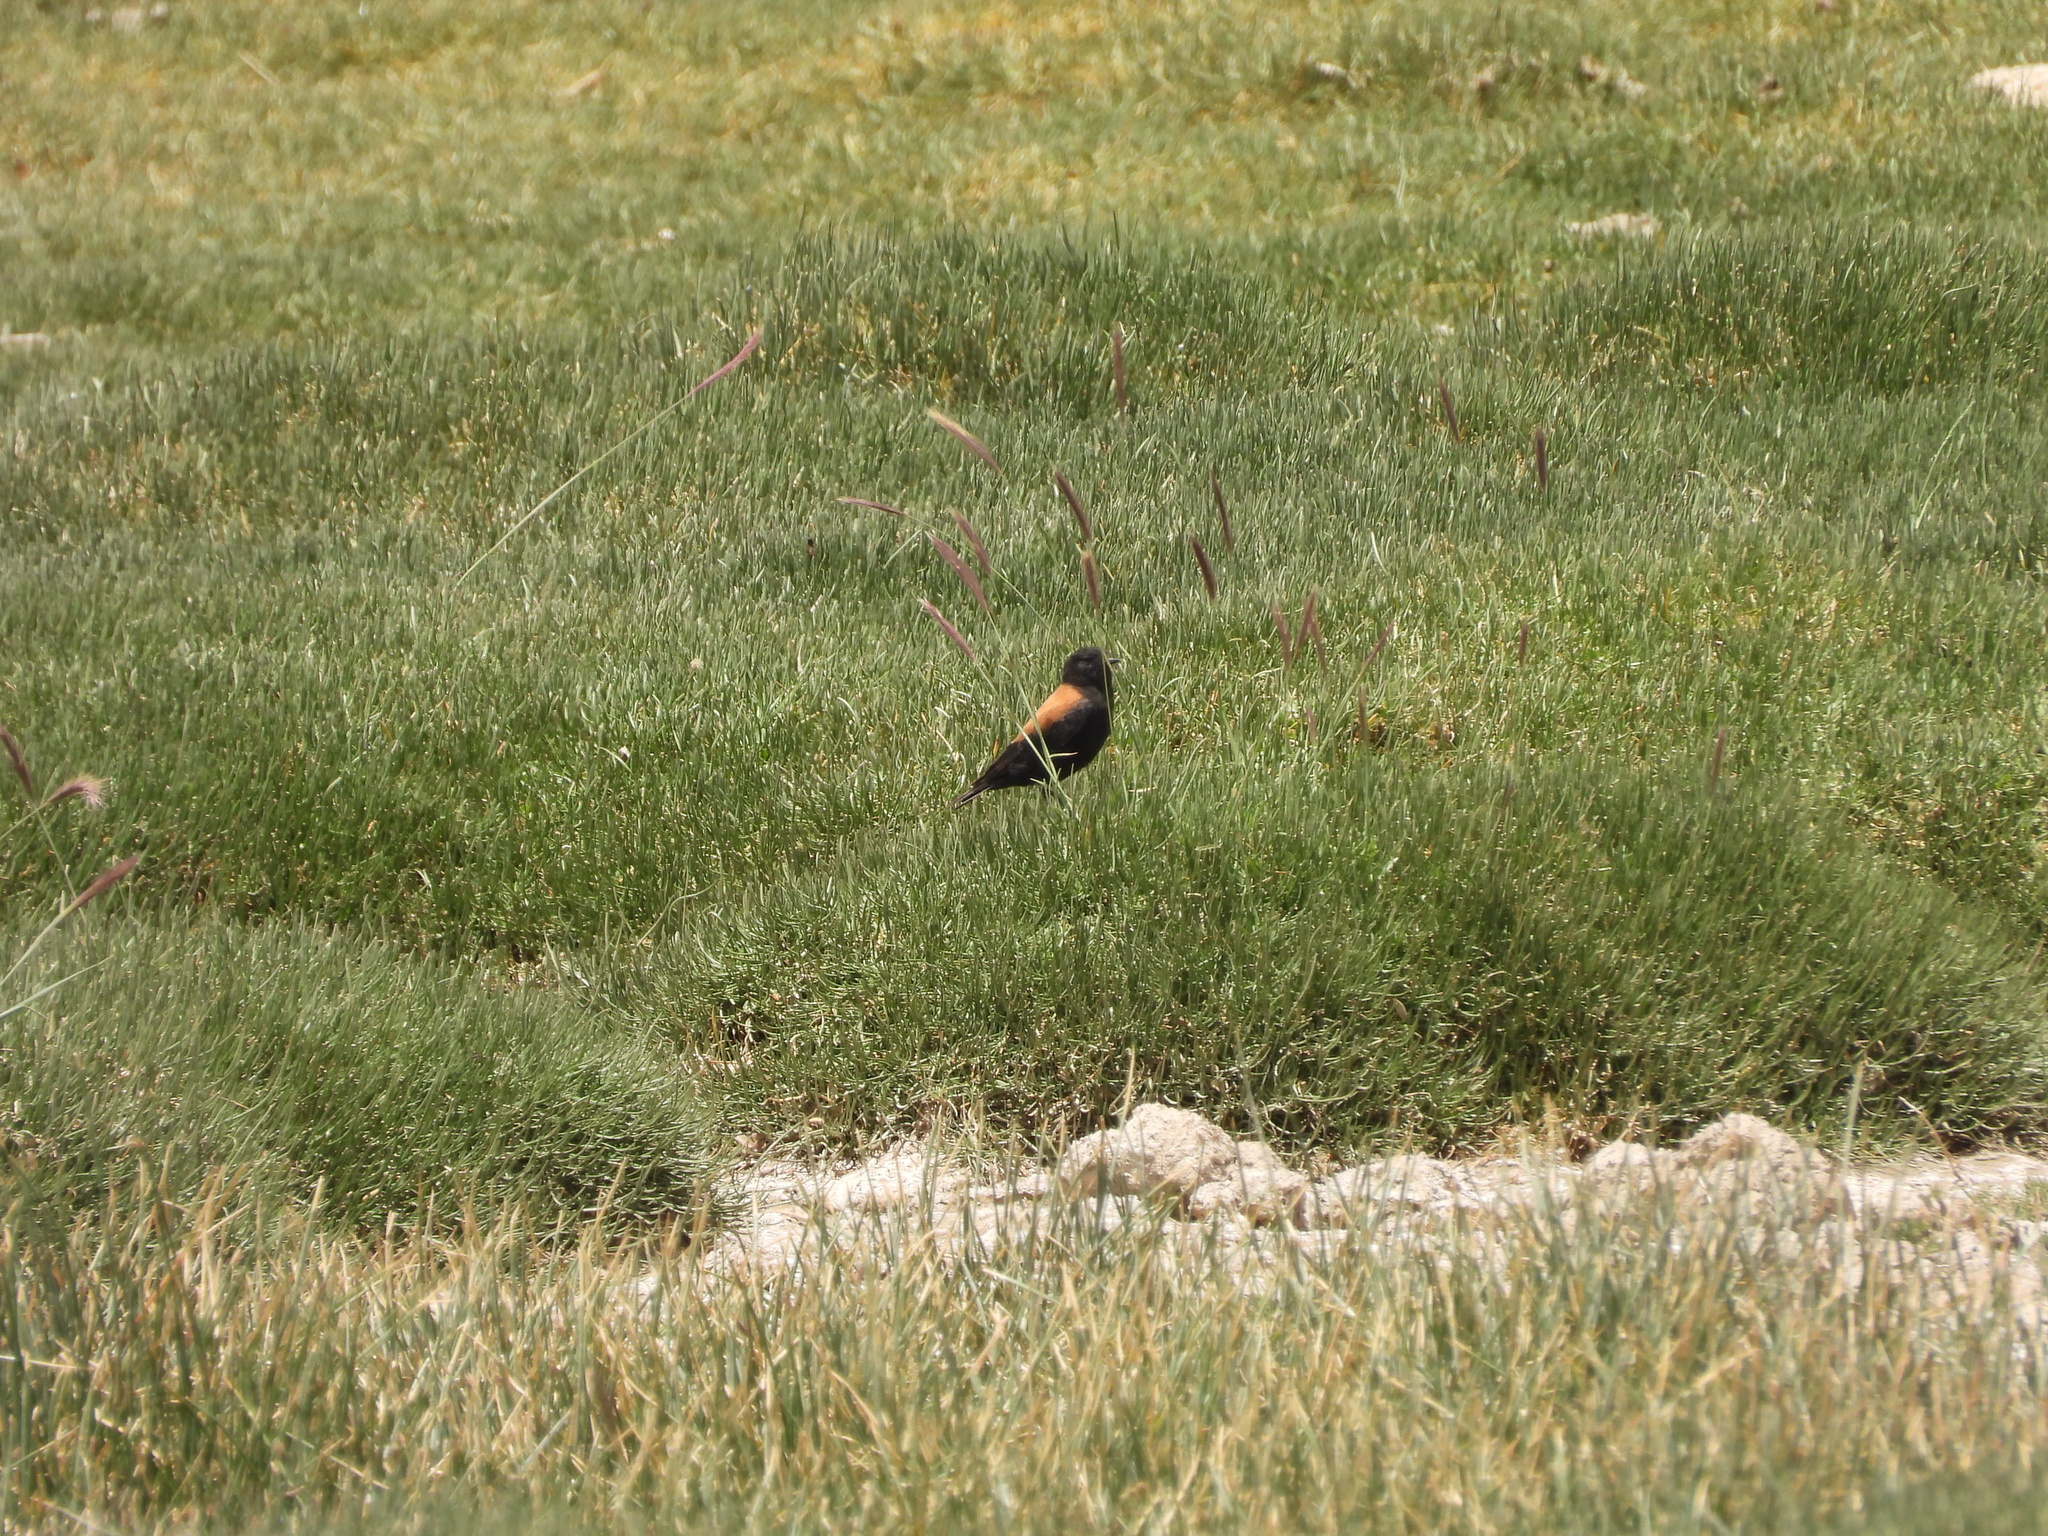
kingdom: Animalia
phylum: Chordata
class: Aves
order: Passeriformes
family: Tyrannidae
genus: Lessonia
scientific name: Lessonia oreas
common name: Andean negrito
